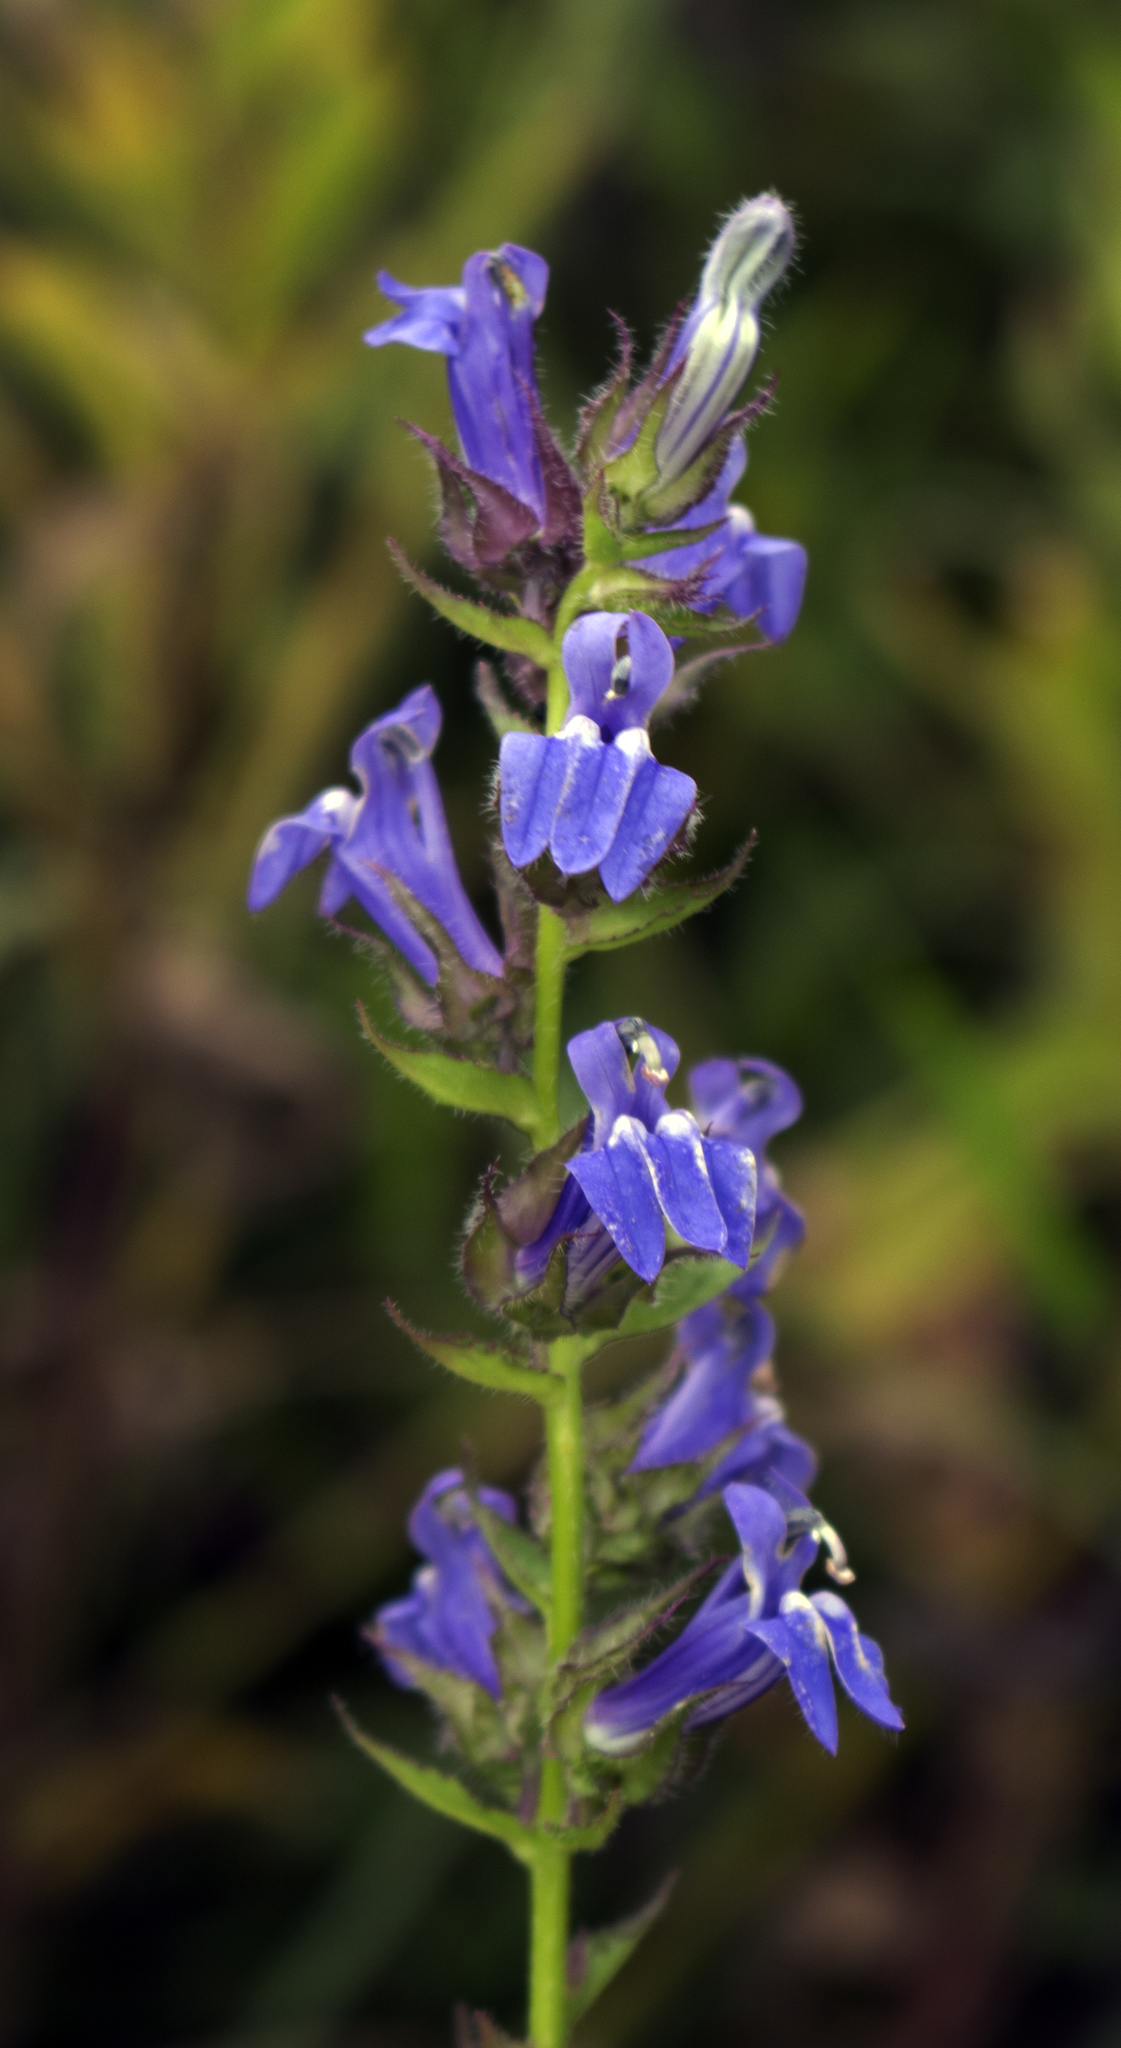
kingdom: Plantae
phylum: Tracheophyta
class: Magnoliopsida
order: Asterales
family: Campanulaceae
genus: Lobelia
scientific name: Lobelia siphilitica
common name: Great lobelia
